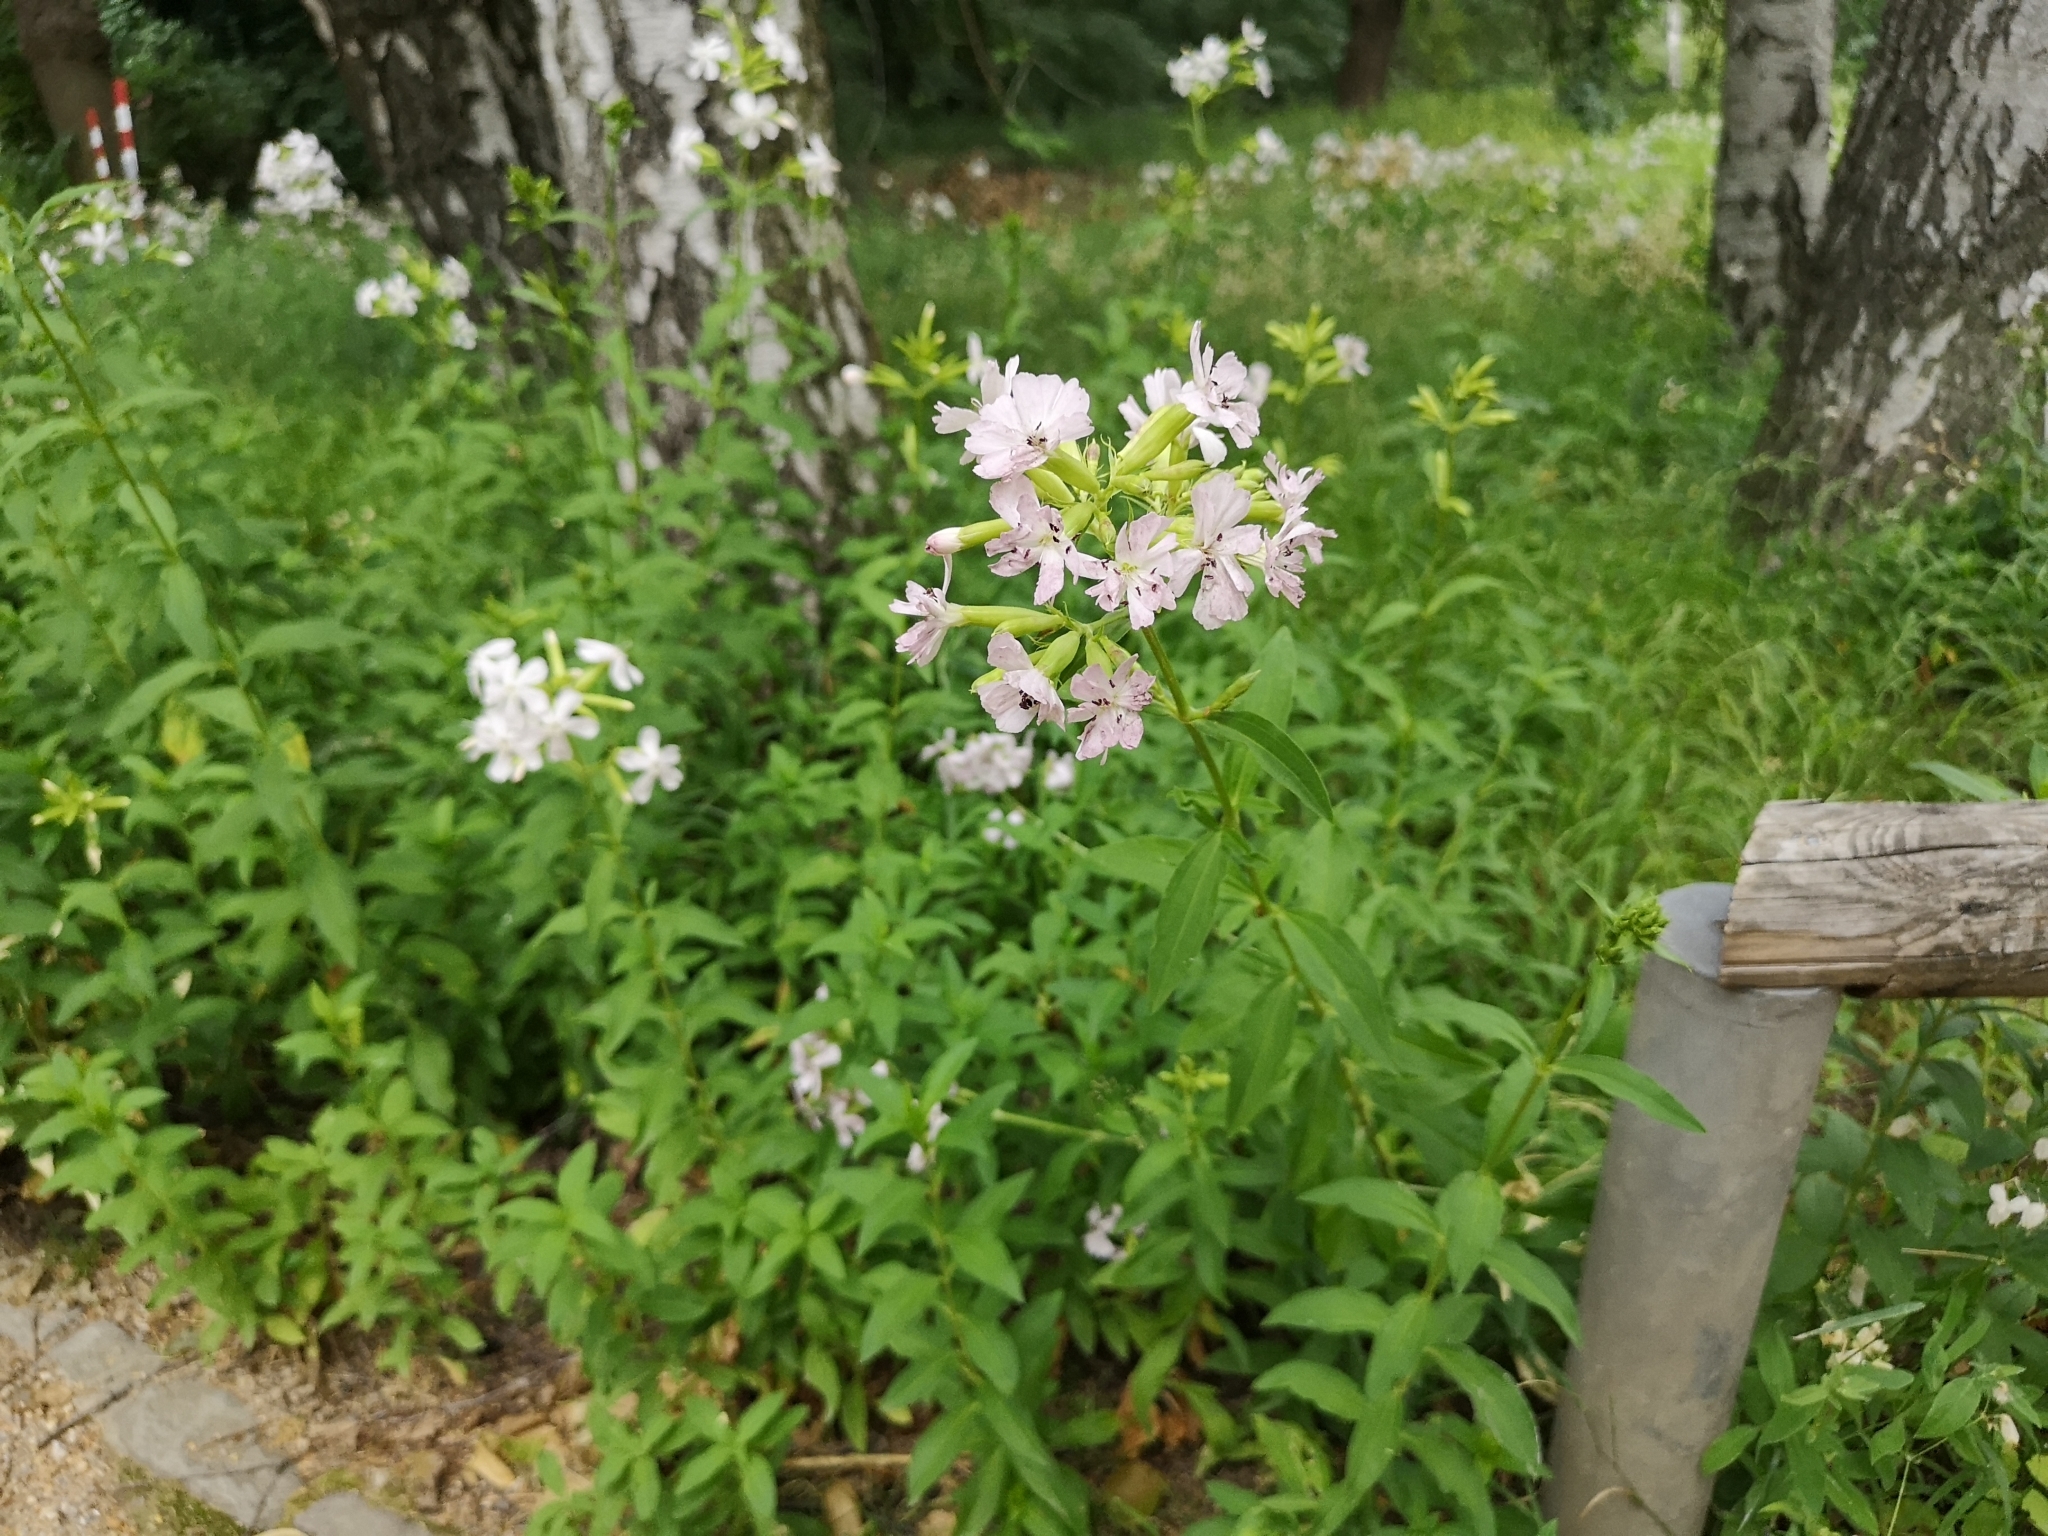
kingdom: Plantae
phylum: Tracheophyta
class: Magnoliopsida
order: Caryophyllales
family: Caryophyllaceae
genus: Saponaria
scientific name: Saponaria officinalis
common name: Soapwort
